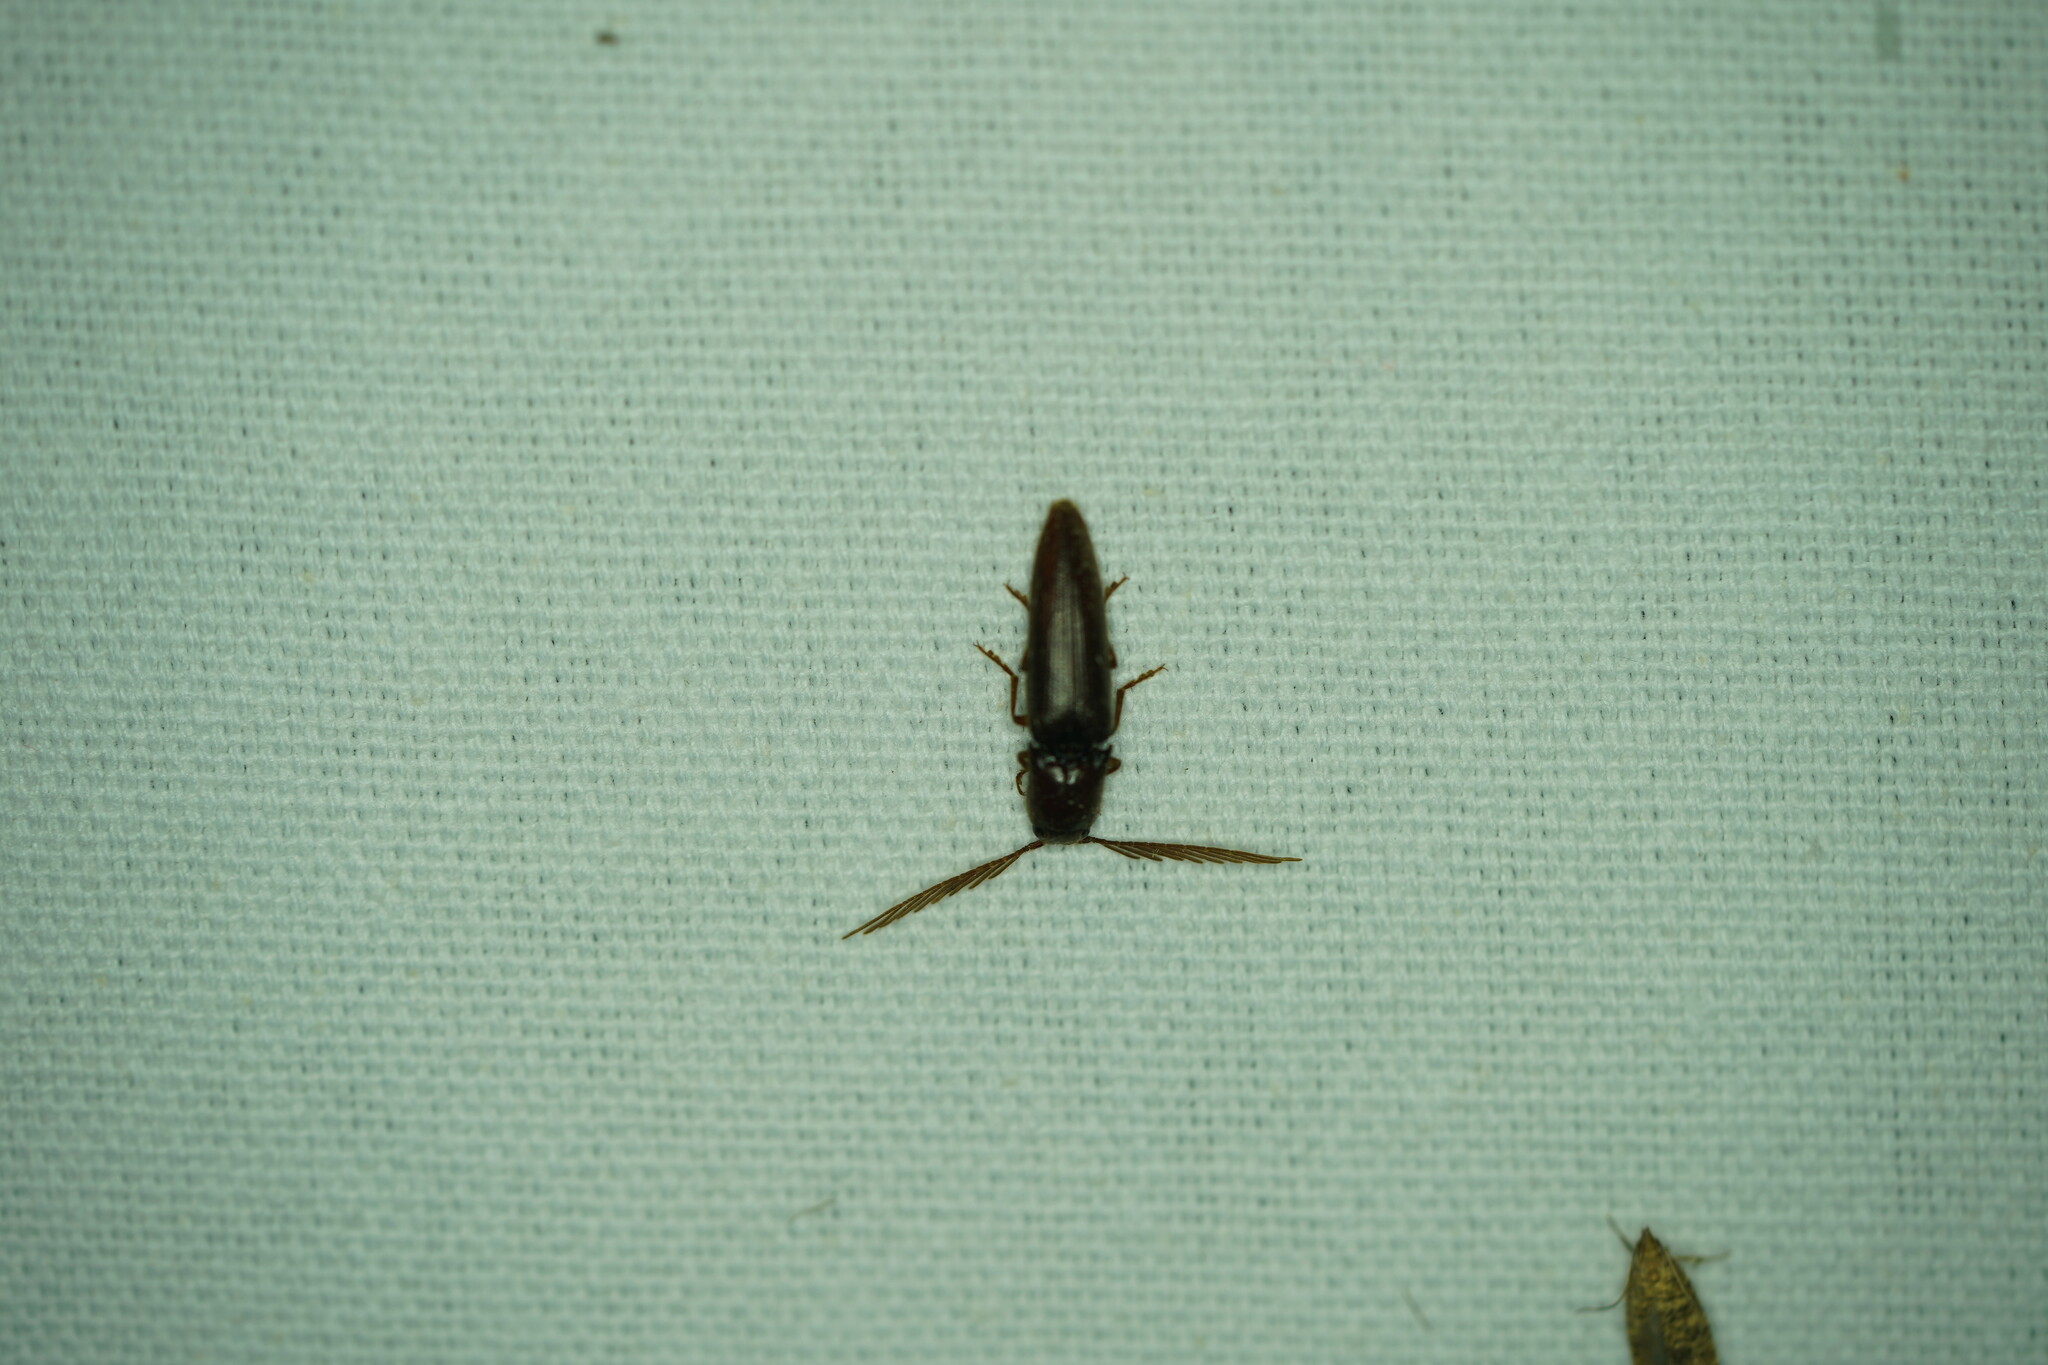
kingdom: Animalia
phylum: Arthropoda
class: Insecta
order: Coleoptera
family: Elateridae
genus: Dicrepidius
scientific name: Dicrepidius palmatus
